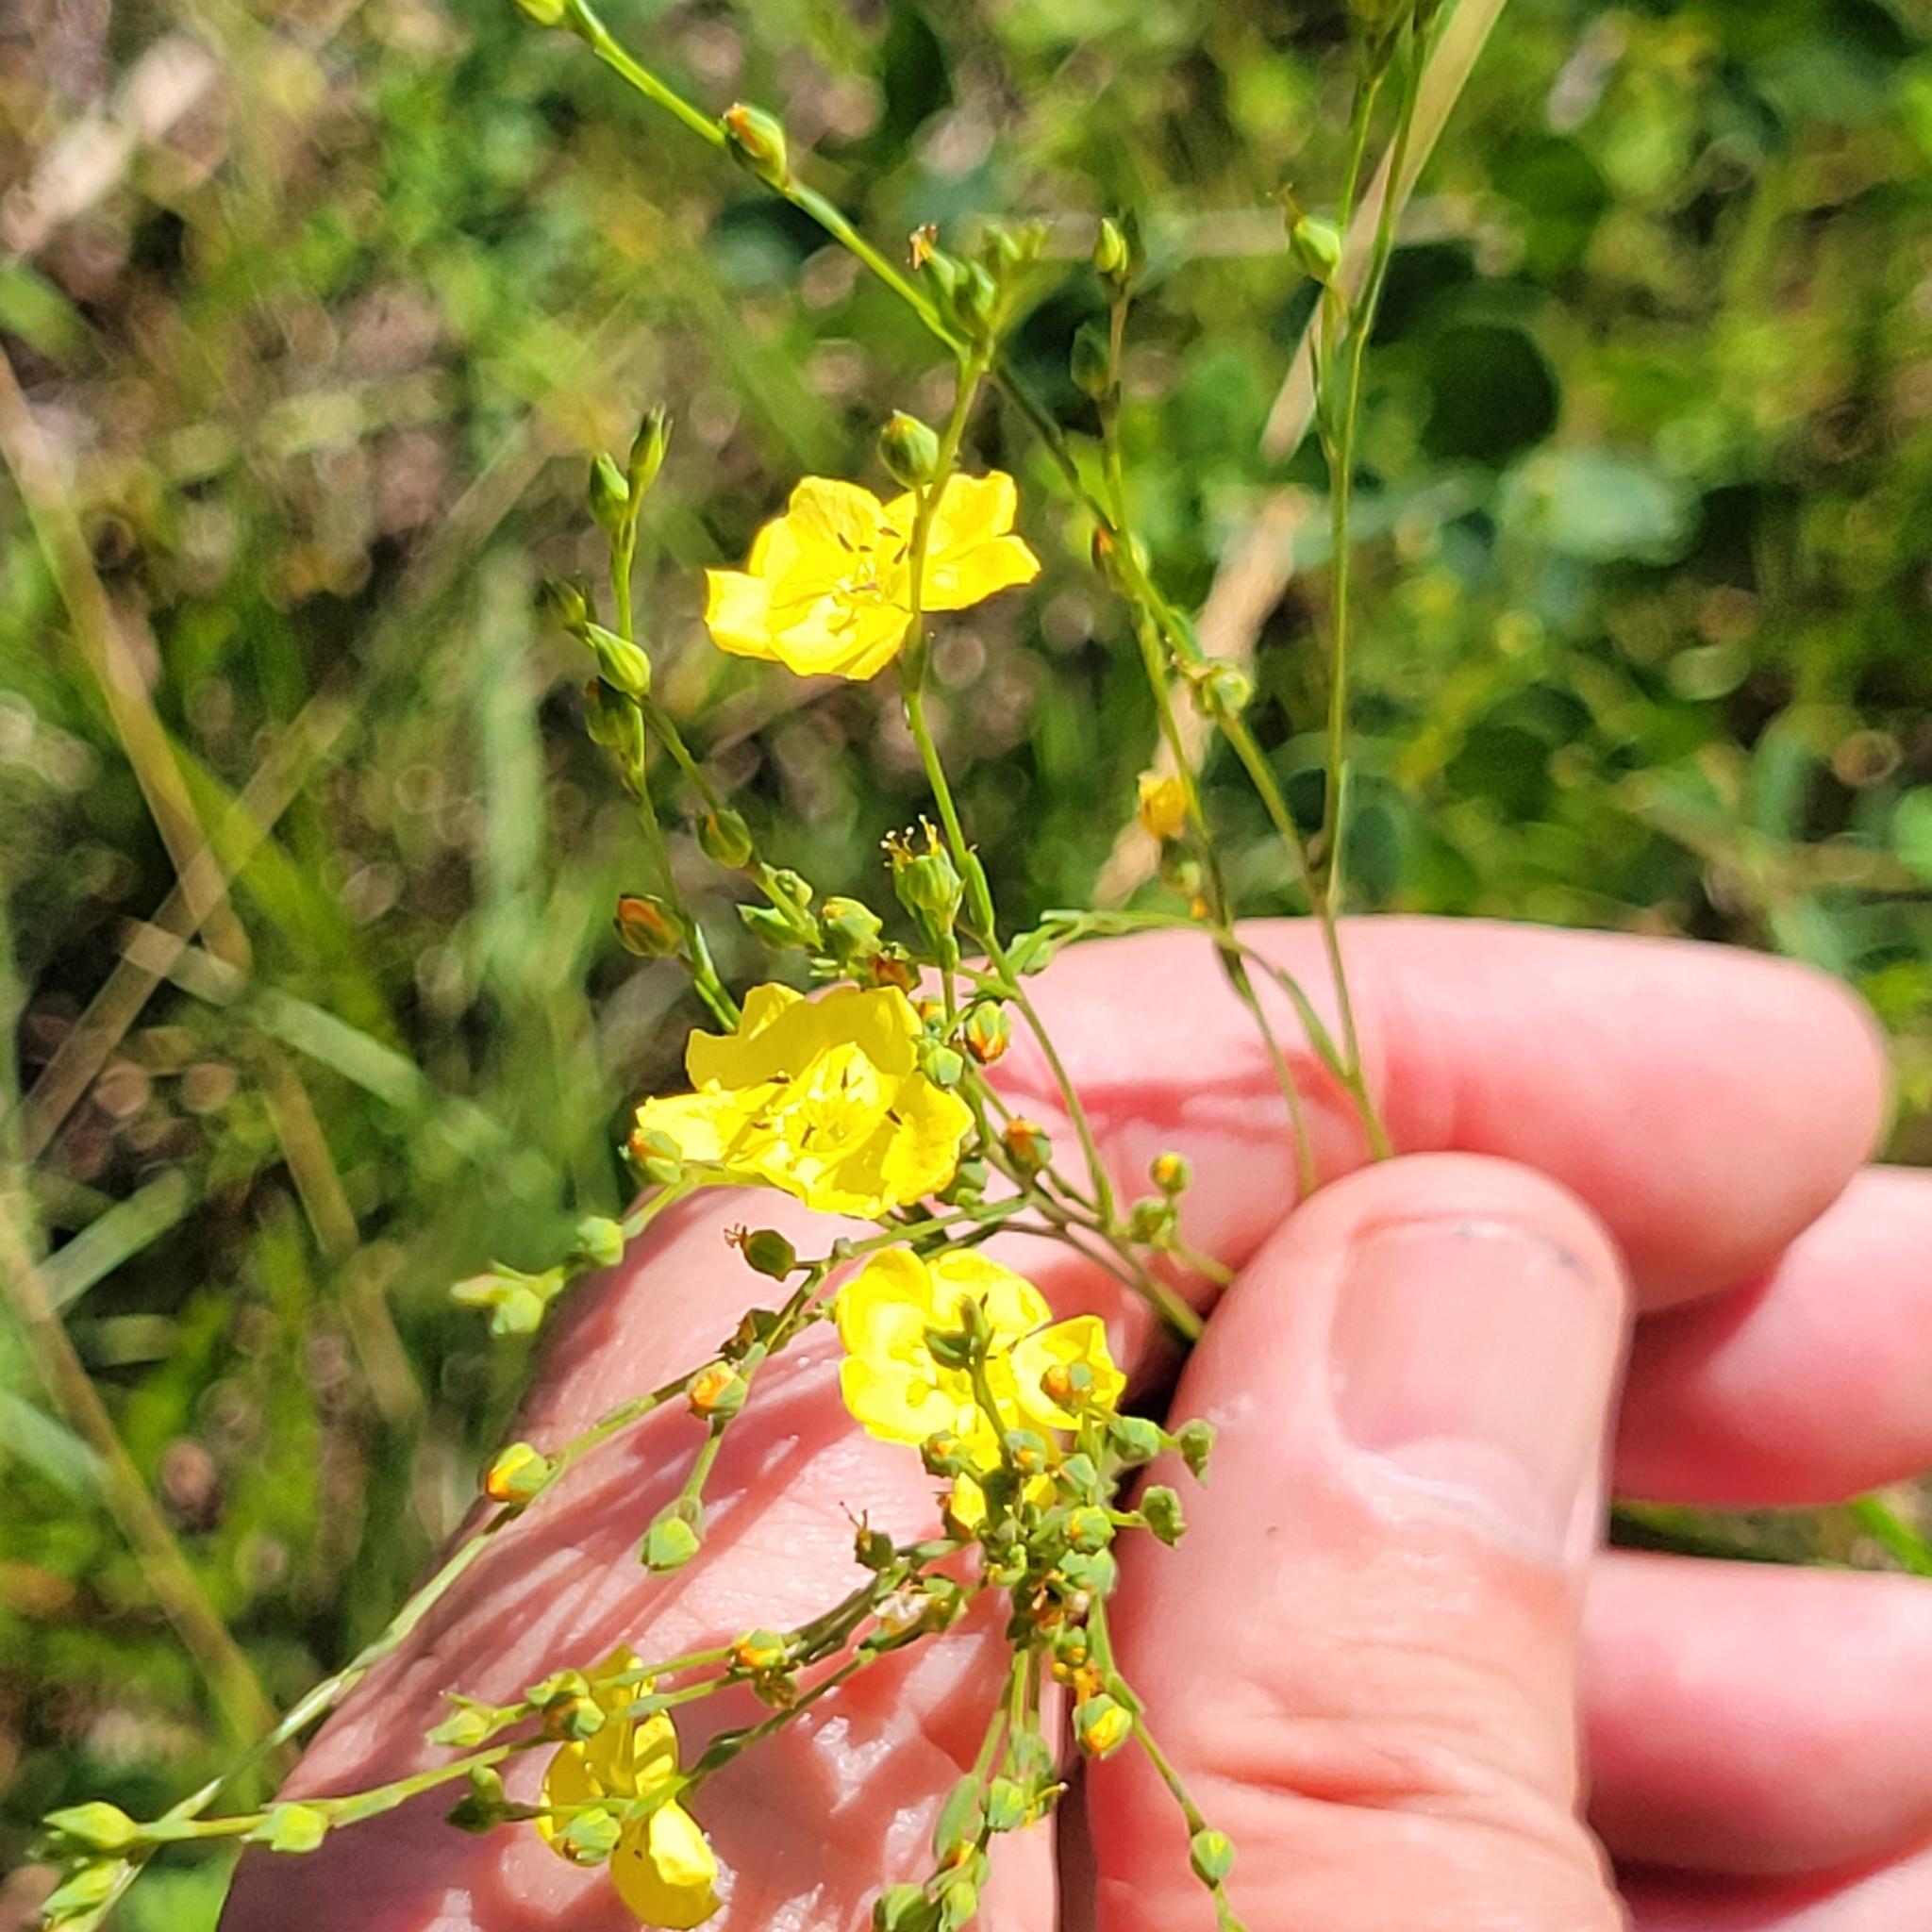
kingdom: Plantae
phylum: Tracheophyta
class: Magnoliopsida
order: Malpighiales
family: Linaceae
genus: Linum
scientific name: Linum intercursum
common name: Sandplain flax
